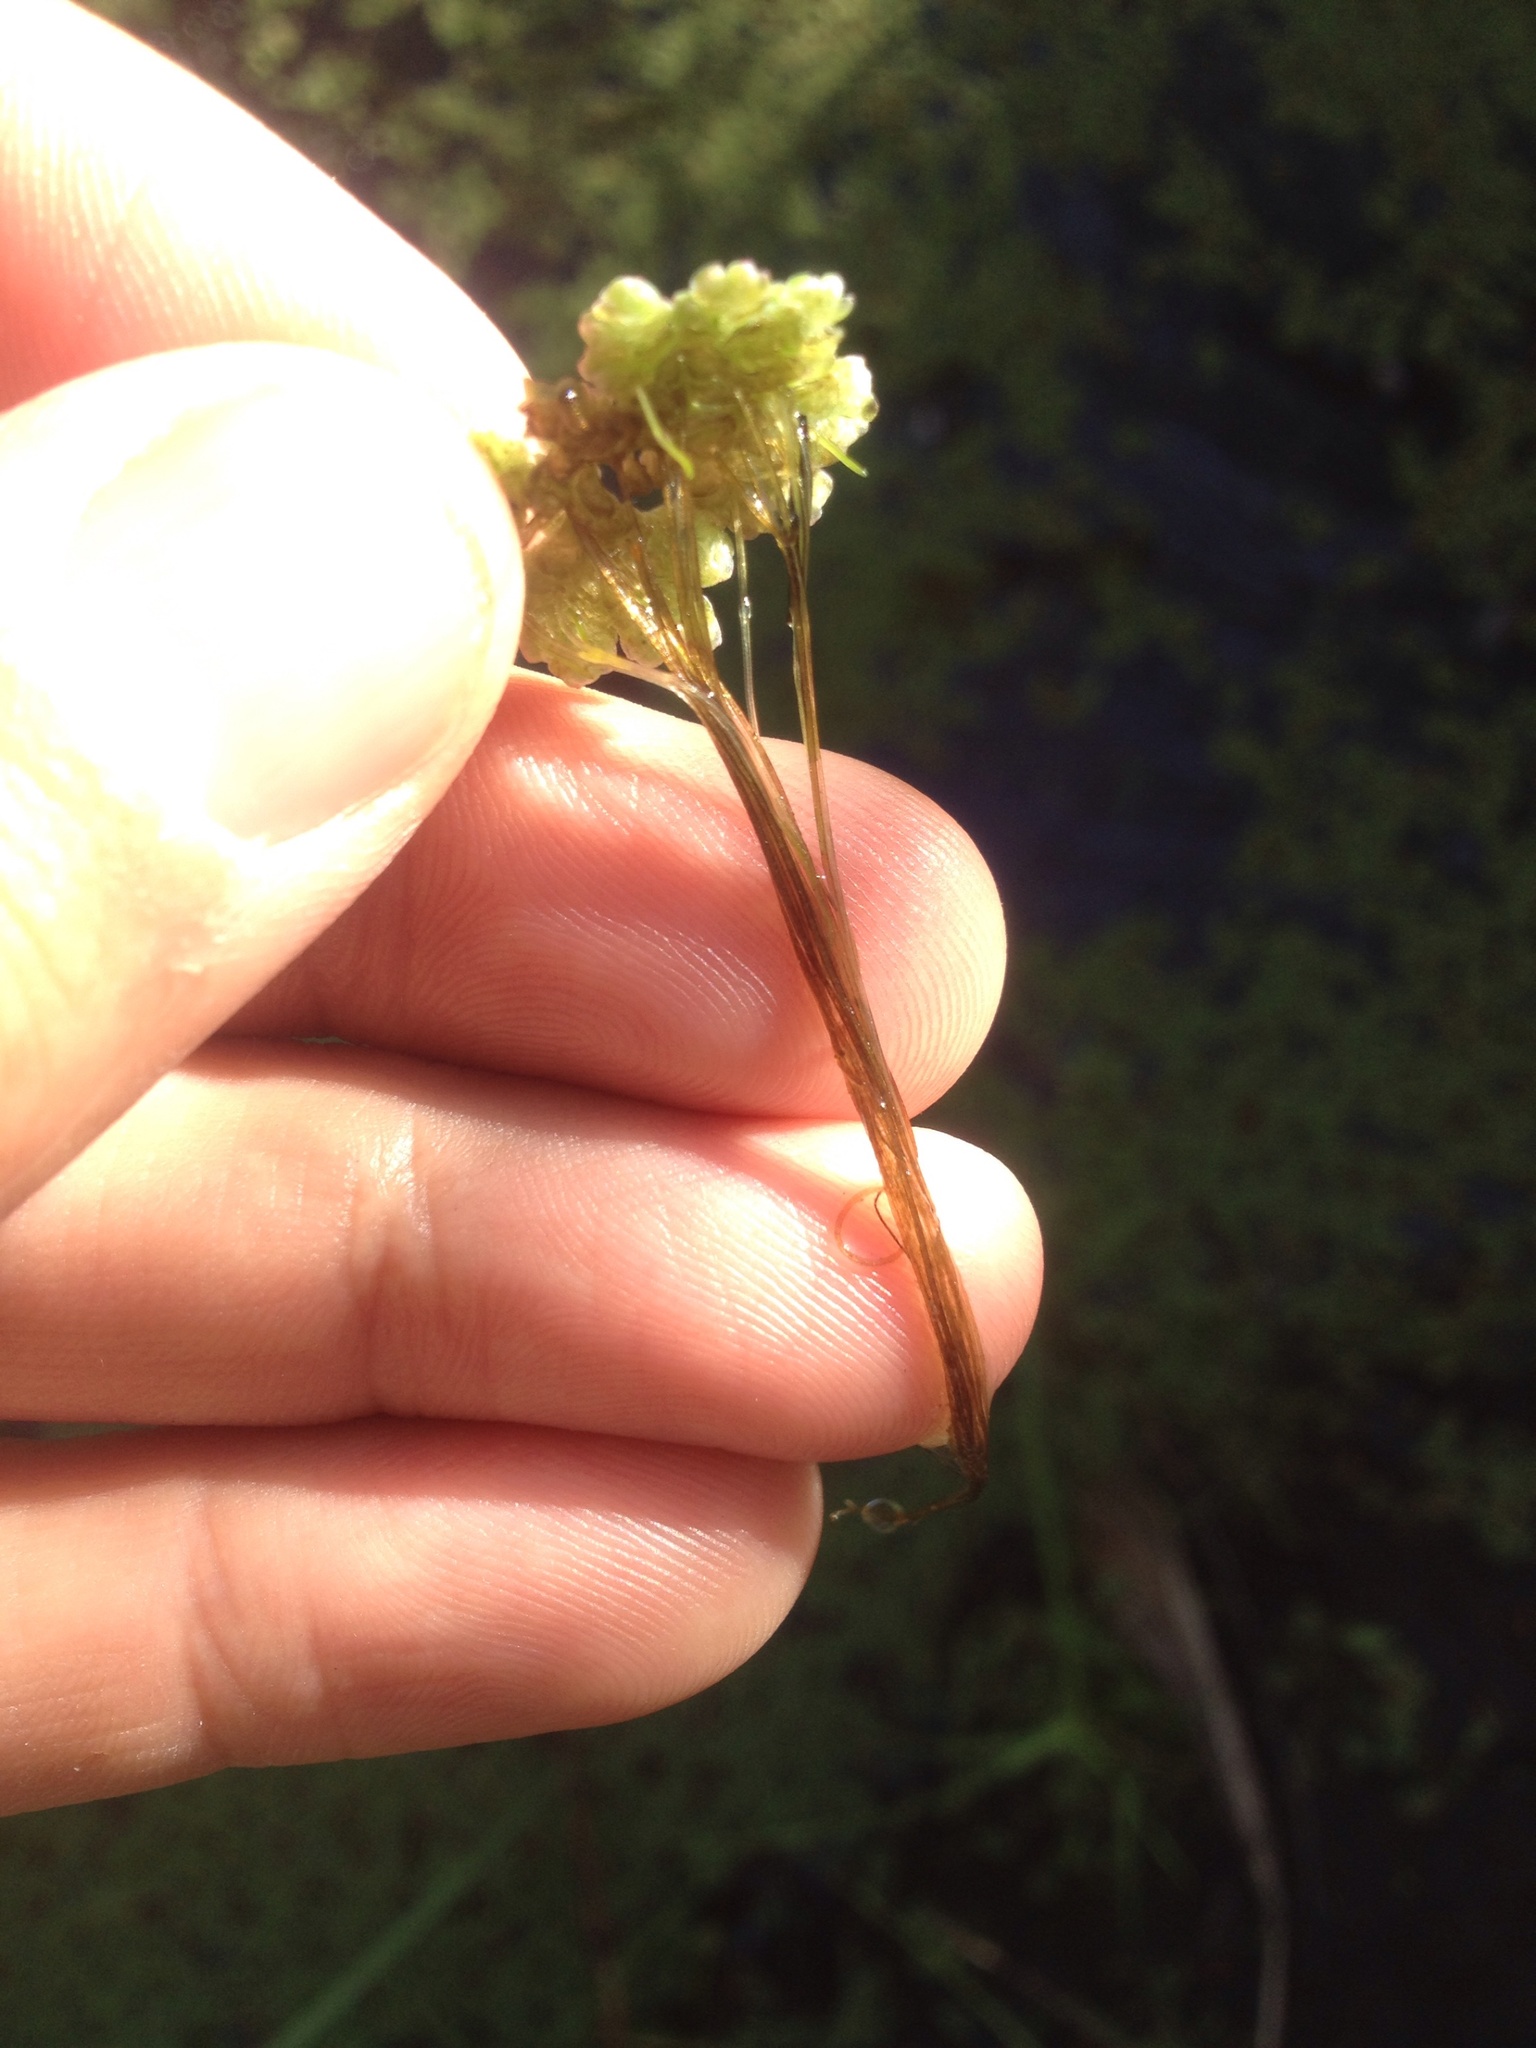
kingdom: Plantae
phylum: Tracheophyta
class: Polypodiopsida
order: Salviniales
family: Salviniaceae
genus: Azolla
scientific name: Azolla rubra
